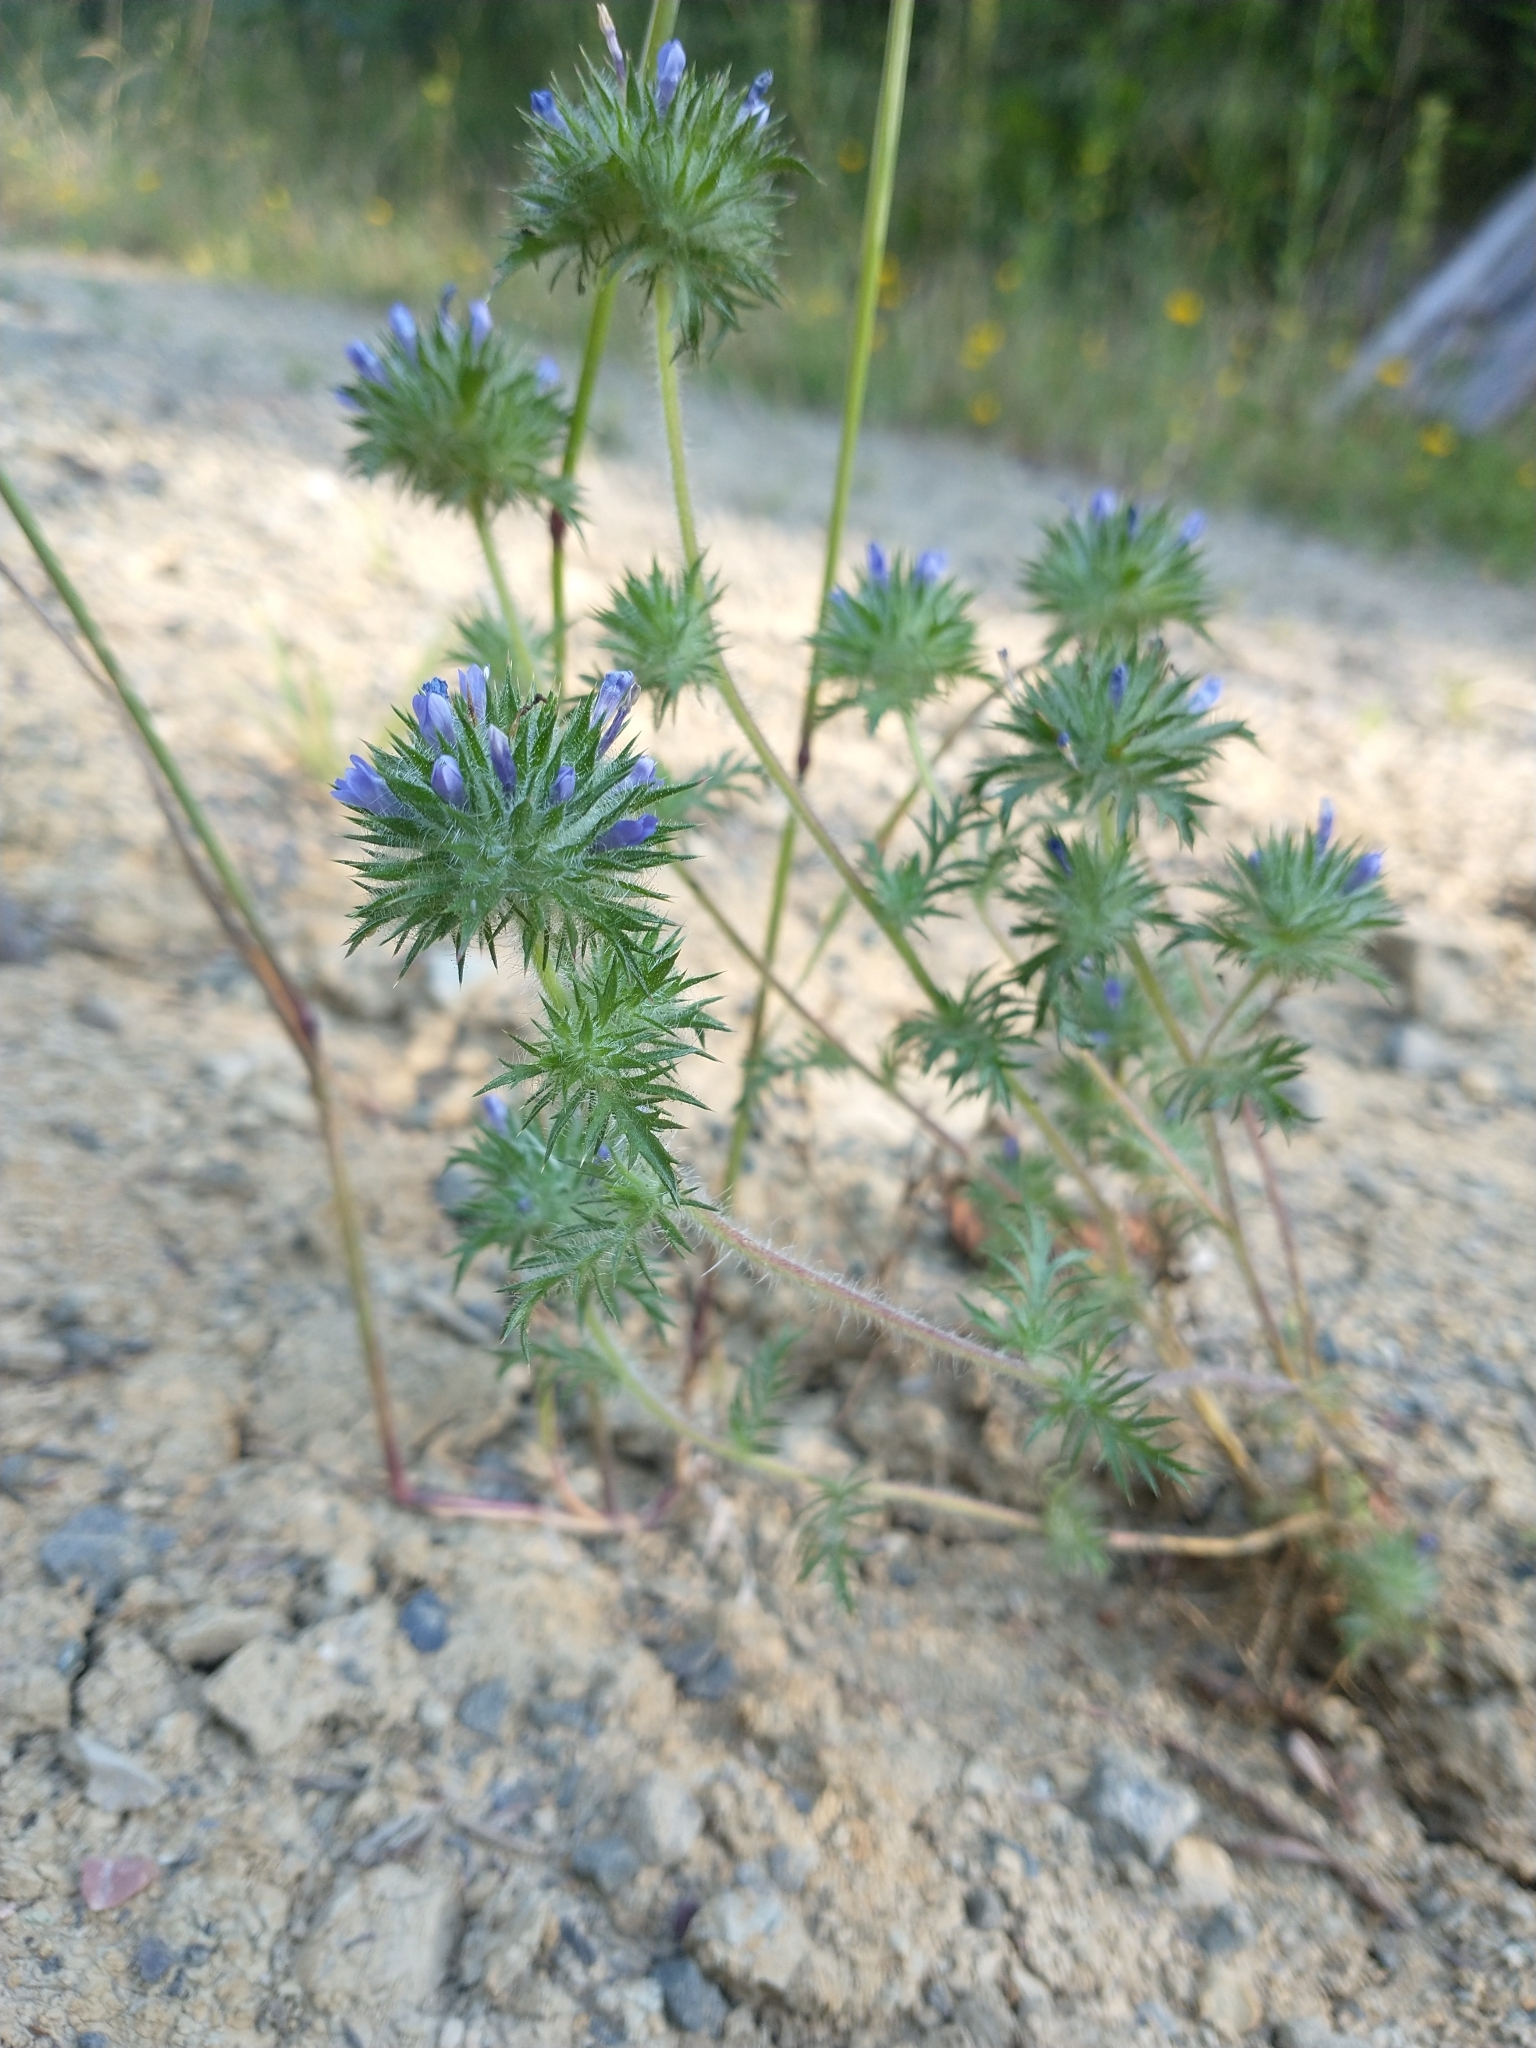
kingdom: Plantae
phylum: Tracheophyta
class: Magnoliopsida
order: Ericales
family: Polemoniaceae
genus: Navarretia
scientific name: Navarretia squarrosa
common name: Skunkweed
